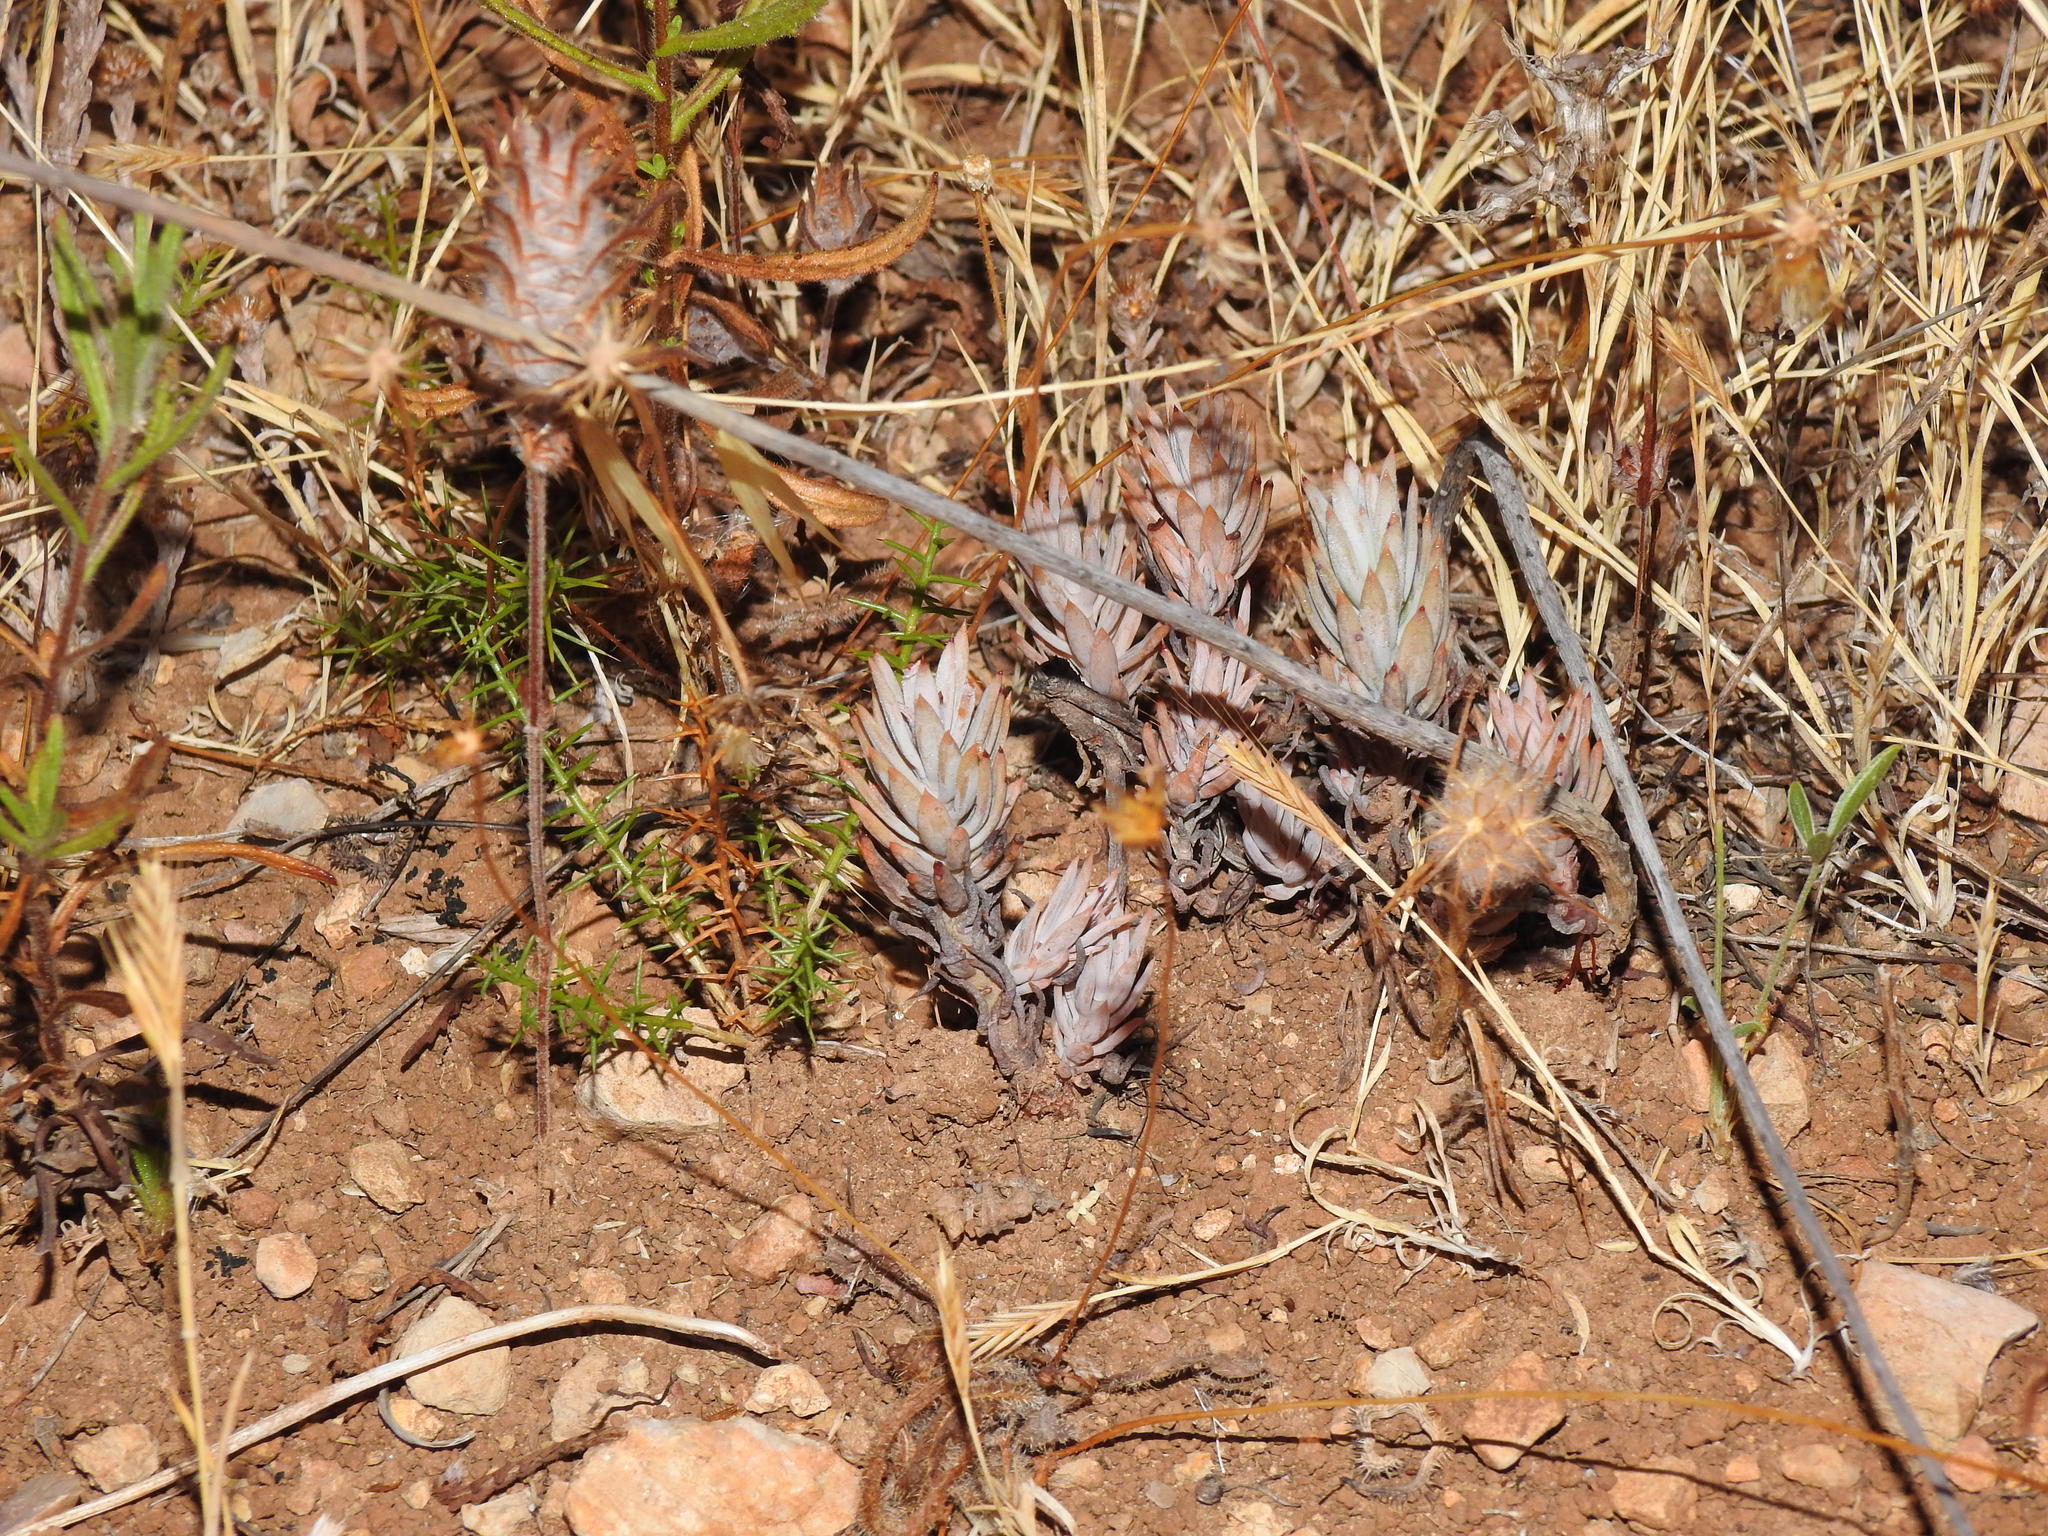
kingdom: Plantae
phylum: Tracheophyta
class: Magnoliopsida
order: Saxifragales
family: Crassulaceae
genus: Petrosedum
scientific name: Petrosedum sediforme
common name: Pale stonecrop
